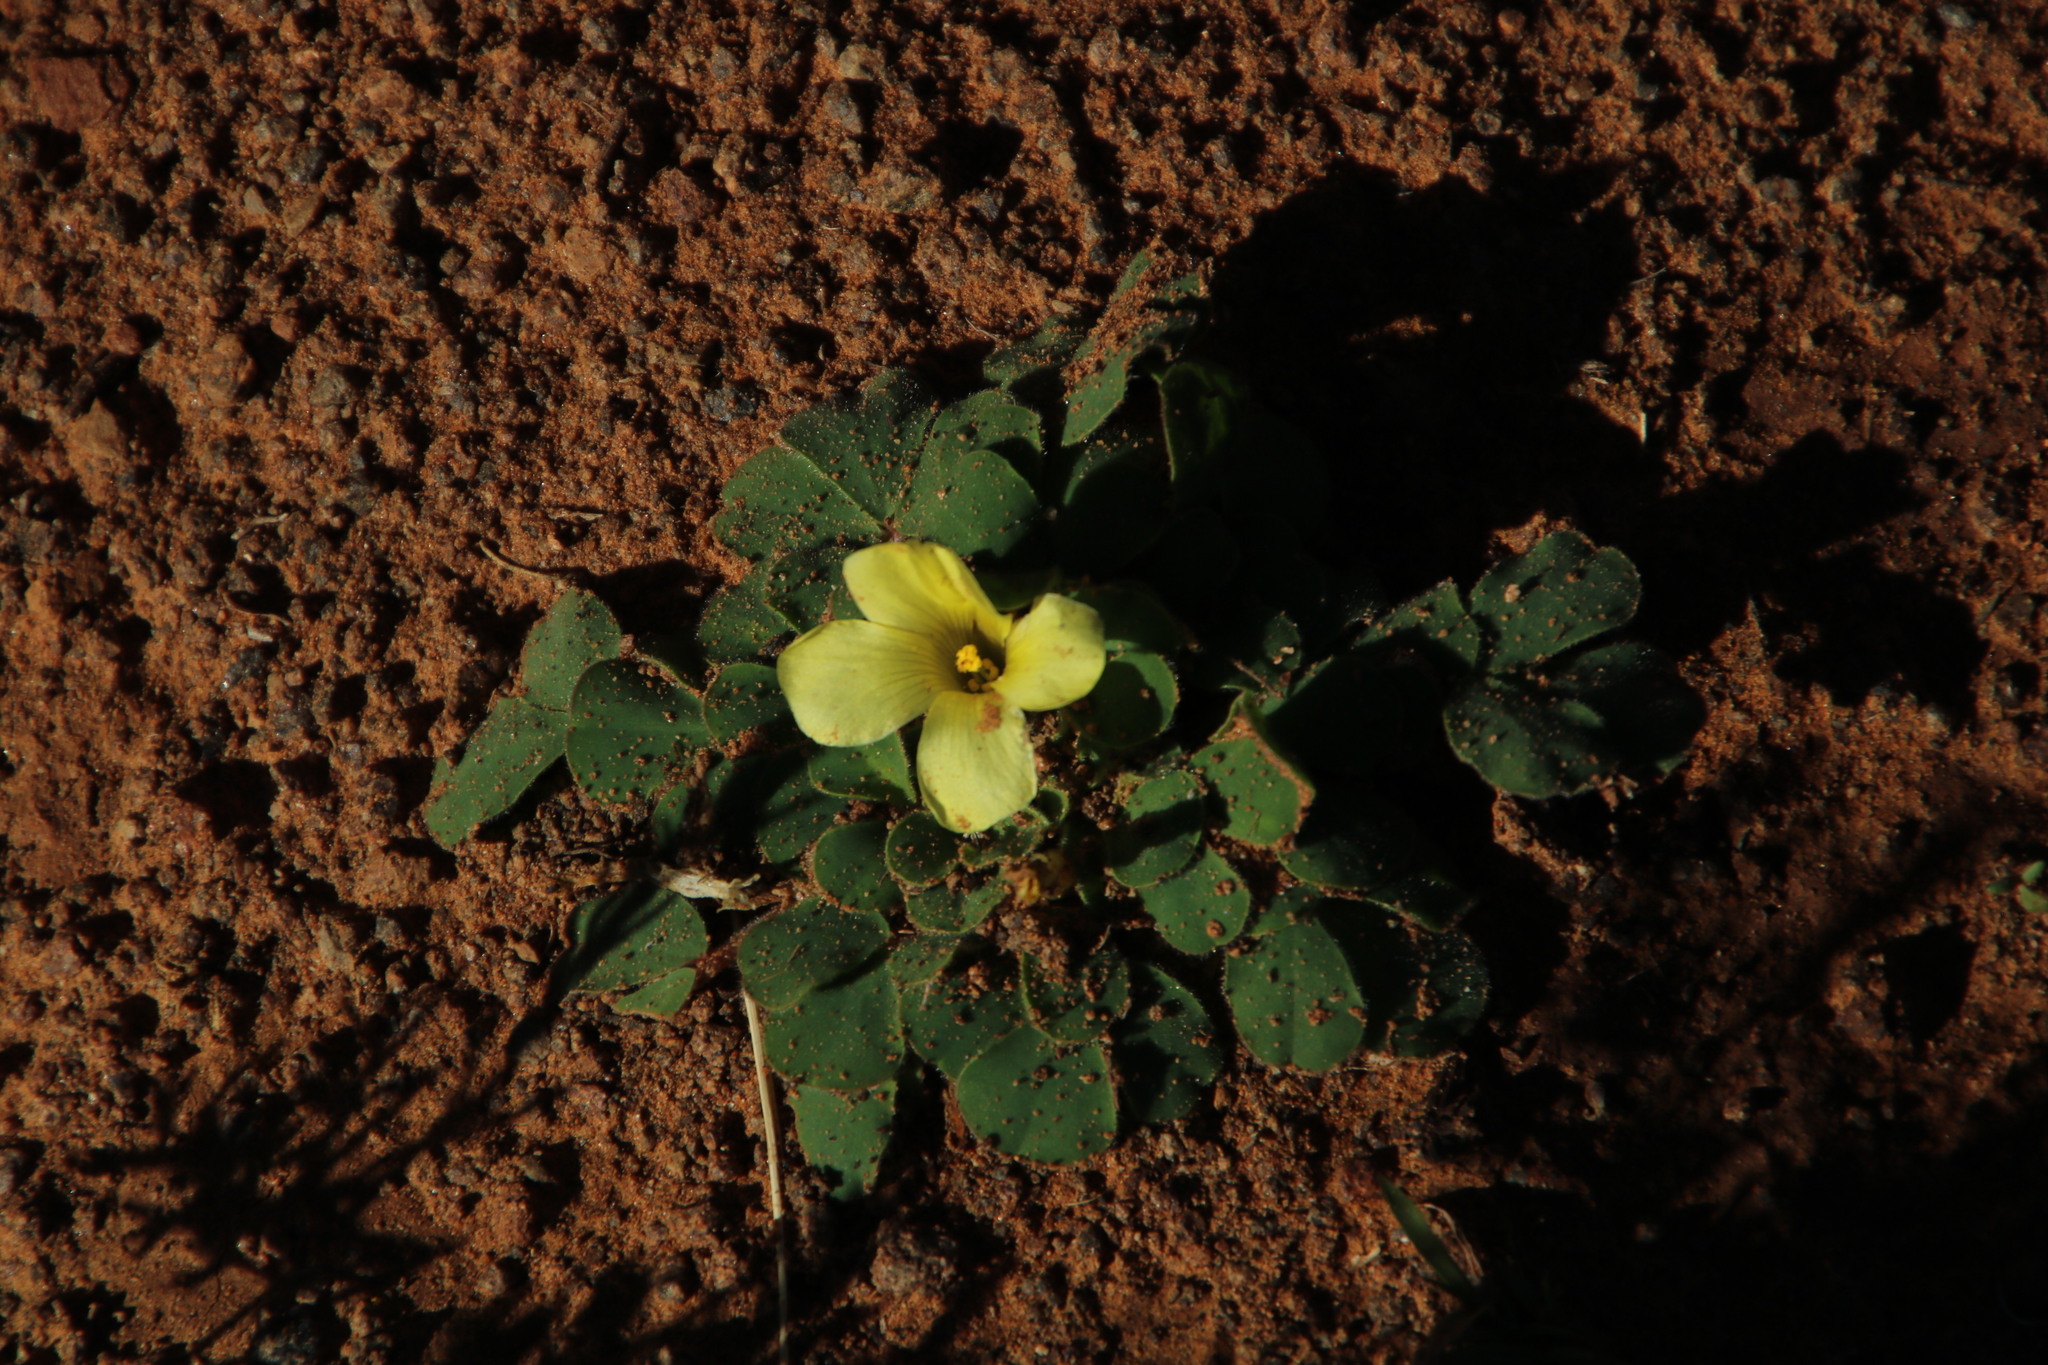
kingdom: Plantae
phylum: Tracheophyta
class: Magnoliopsida
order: Oxalidales
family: Oxalidaceae
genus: Oxalis
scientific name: Oxalis melanosticta
